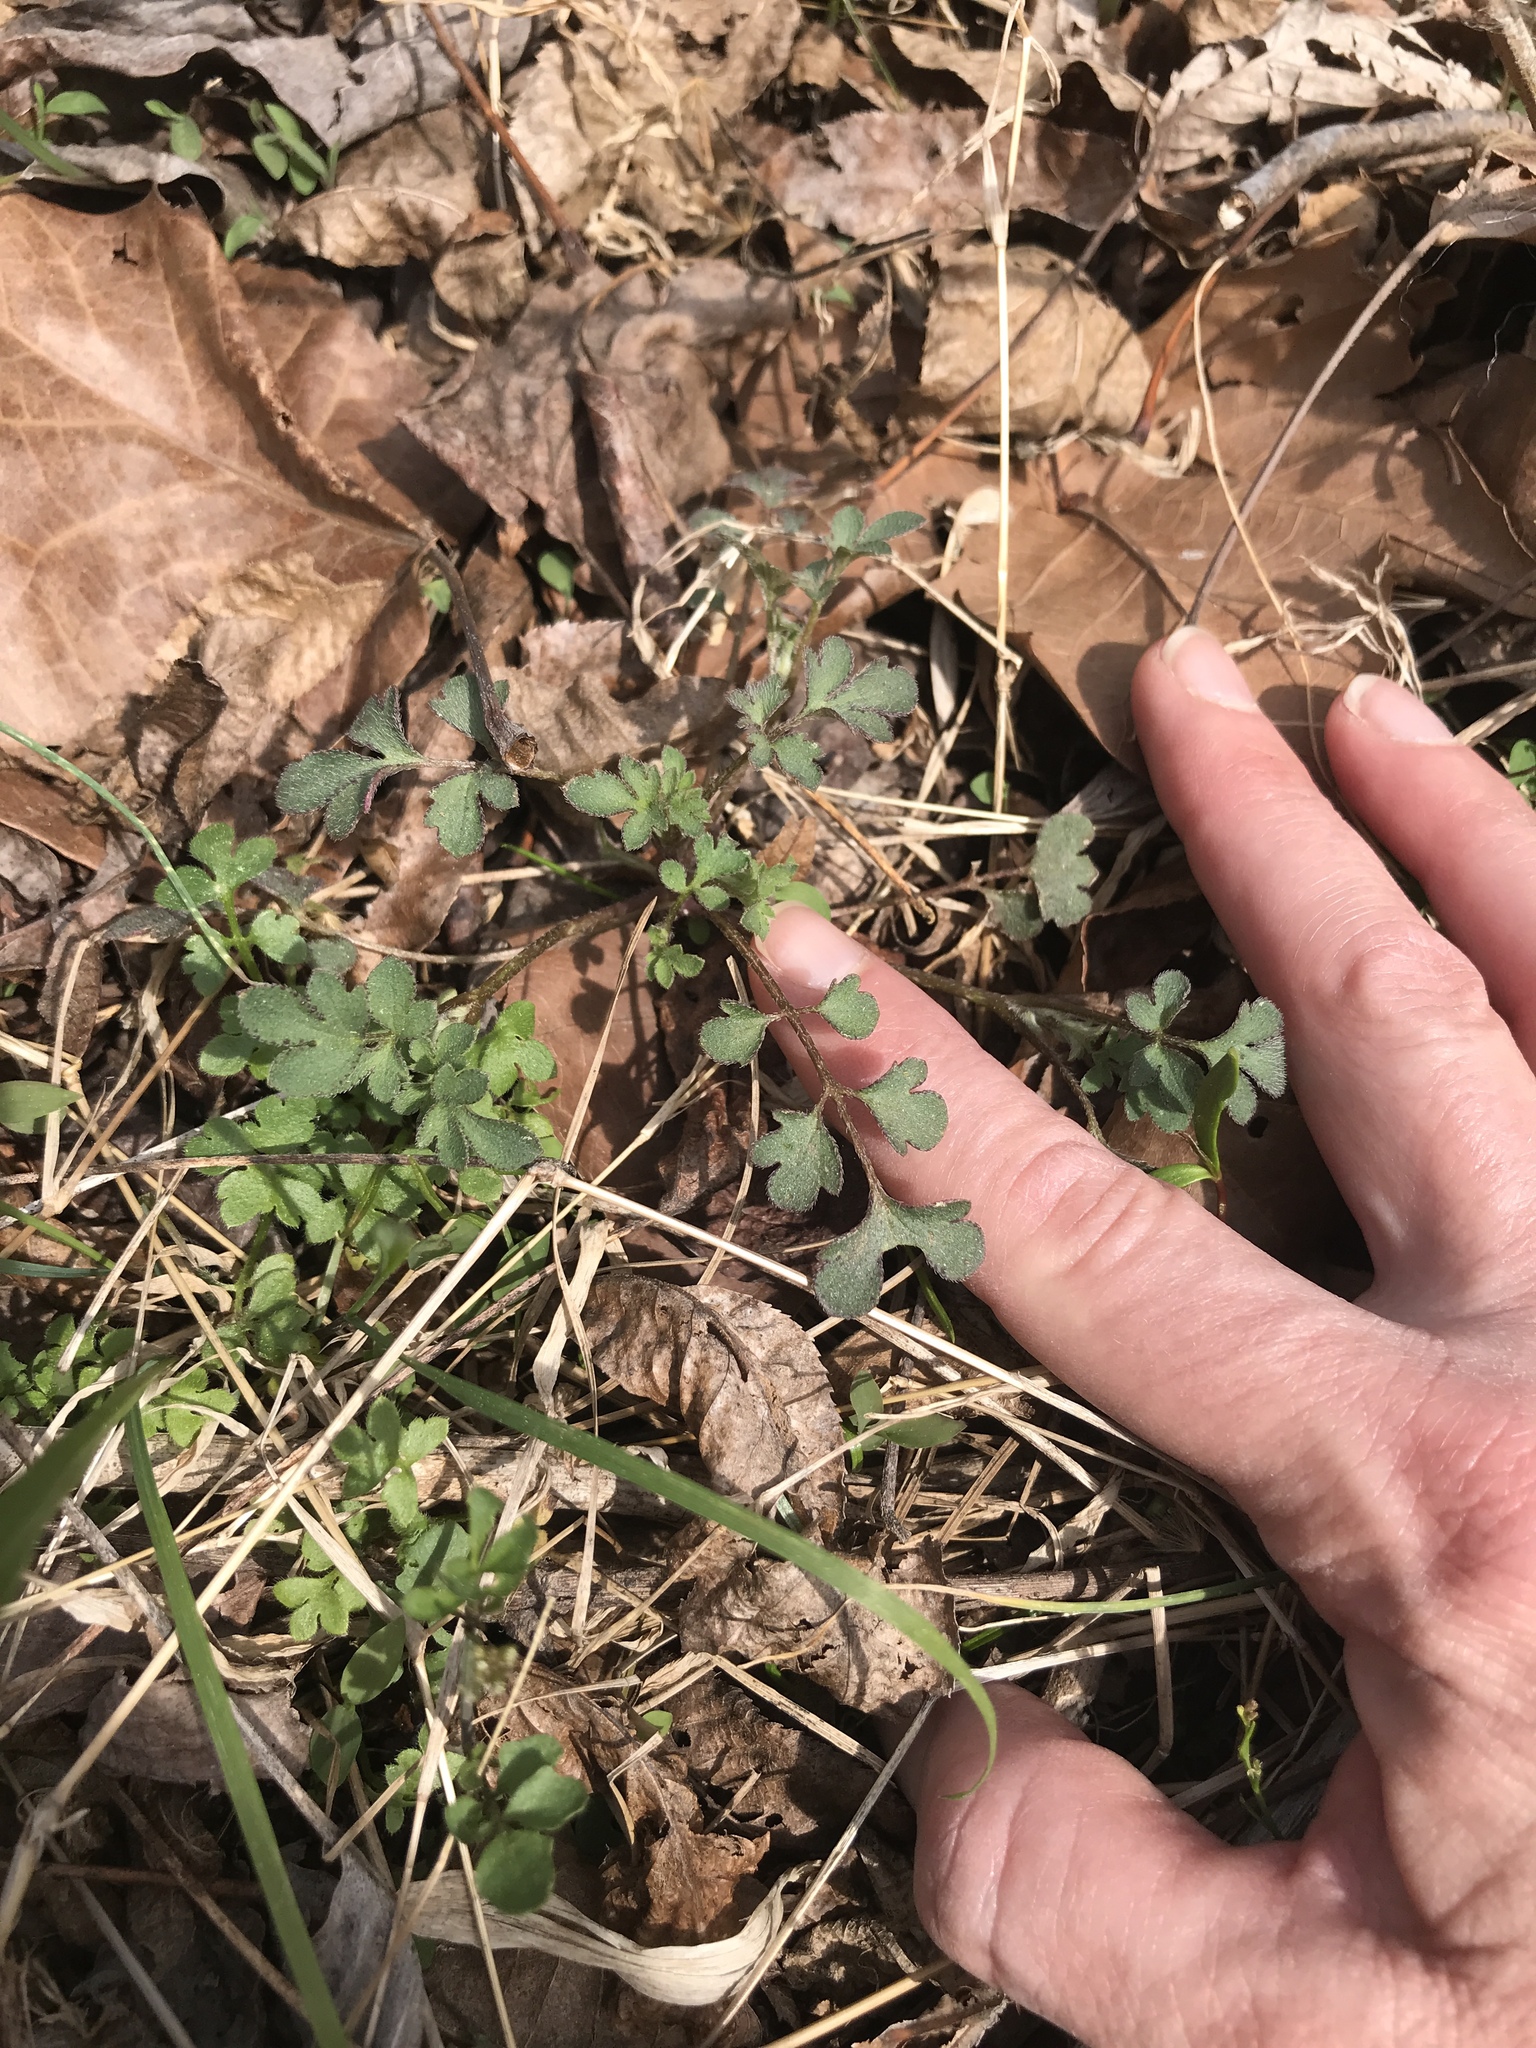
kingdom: Plantae
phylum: Tracheophyta
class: Magnoliopsida
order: Boraginales
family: Hydrophyllaceae
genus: Phacelia
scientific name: Phacelia covillei
